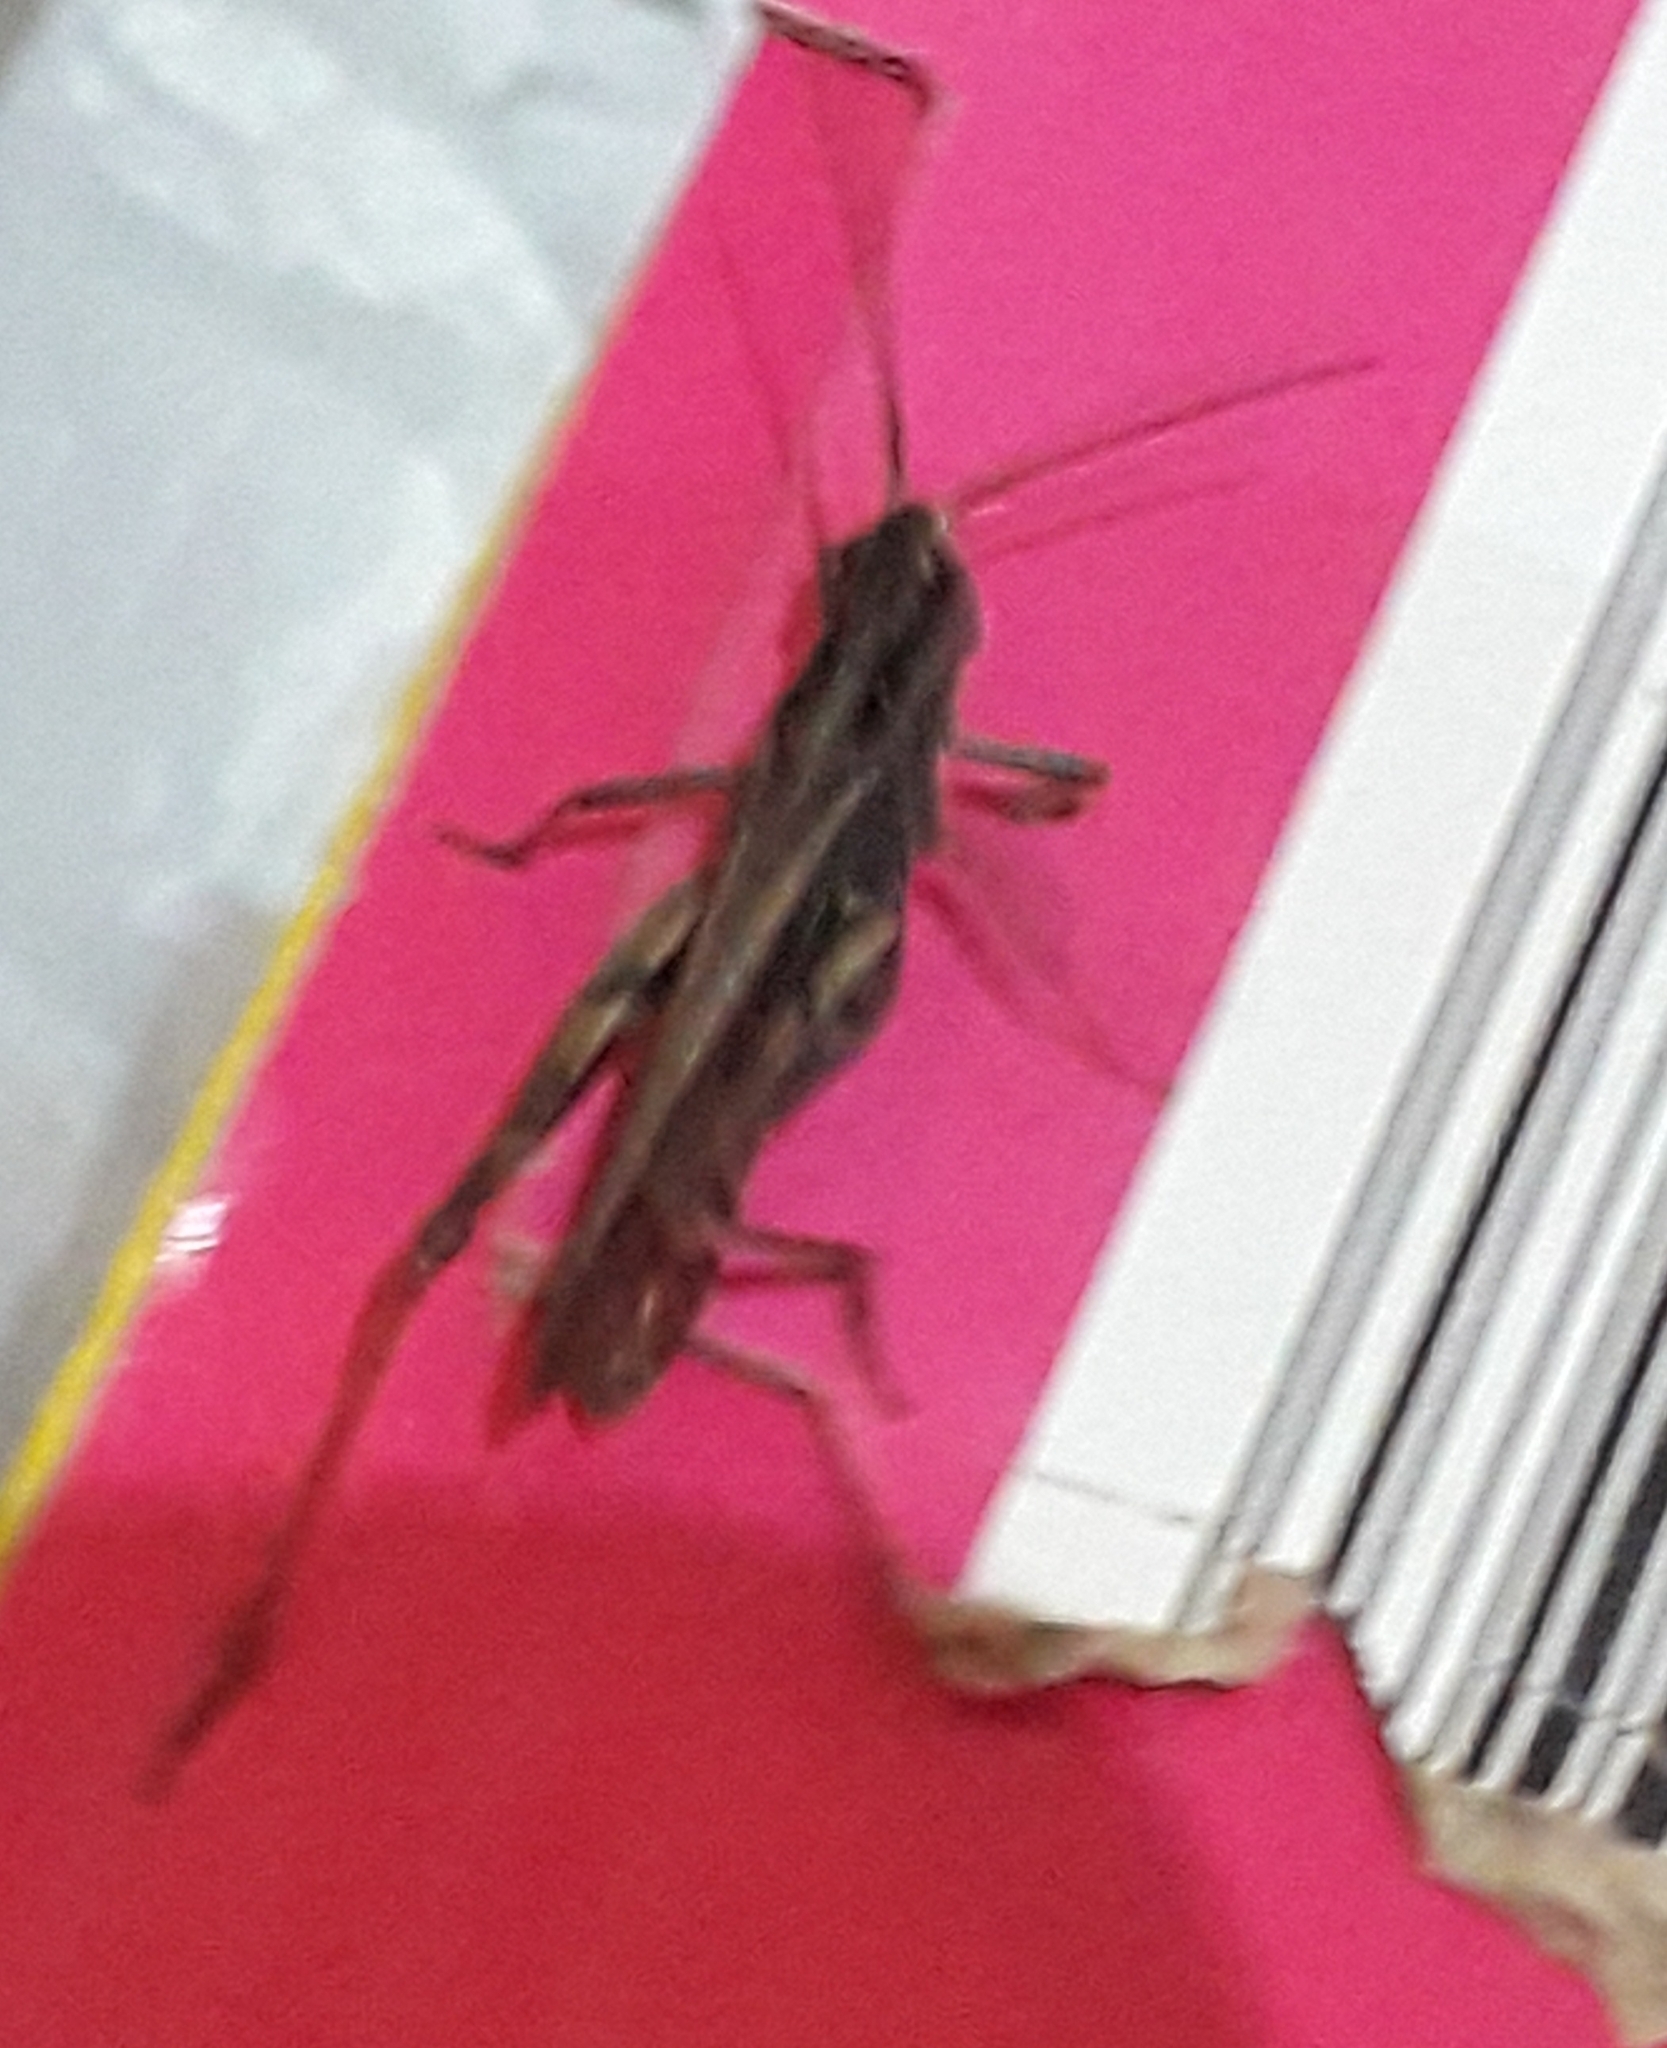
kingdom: Animalia
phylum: Arthropoda
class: Insecta
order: Orthoptera
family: Acrididae
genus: Chorthippus
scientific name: Chorthippus brunneus
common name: Field grasshopper
